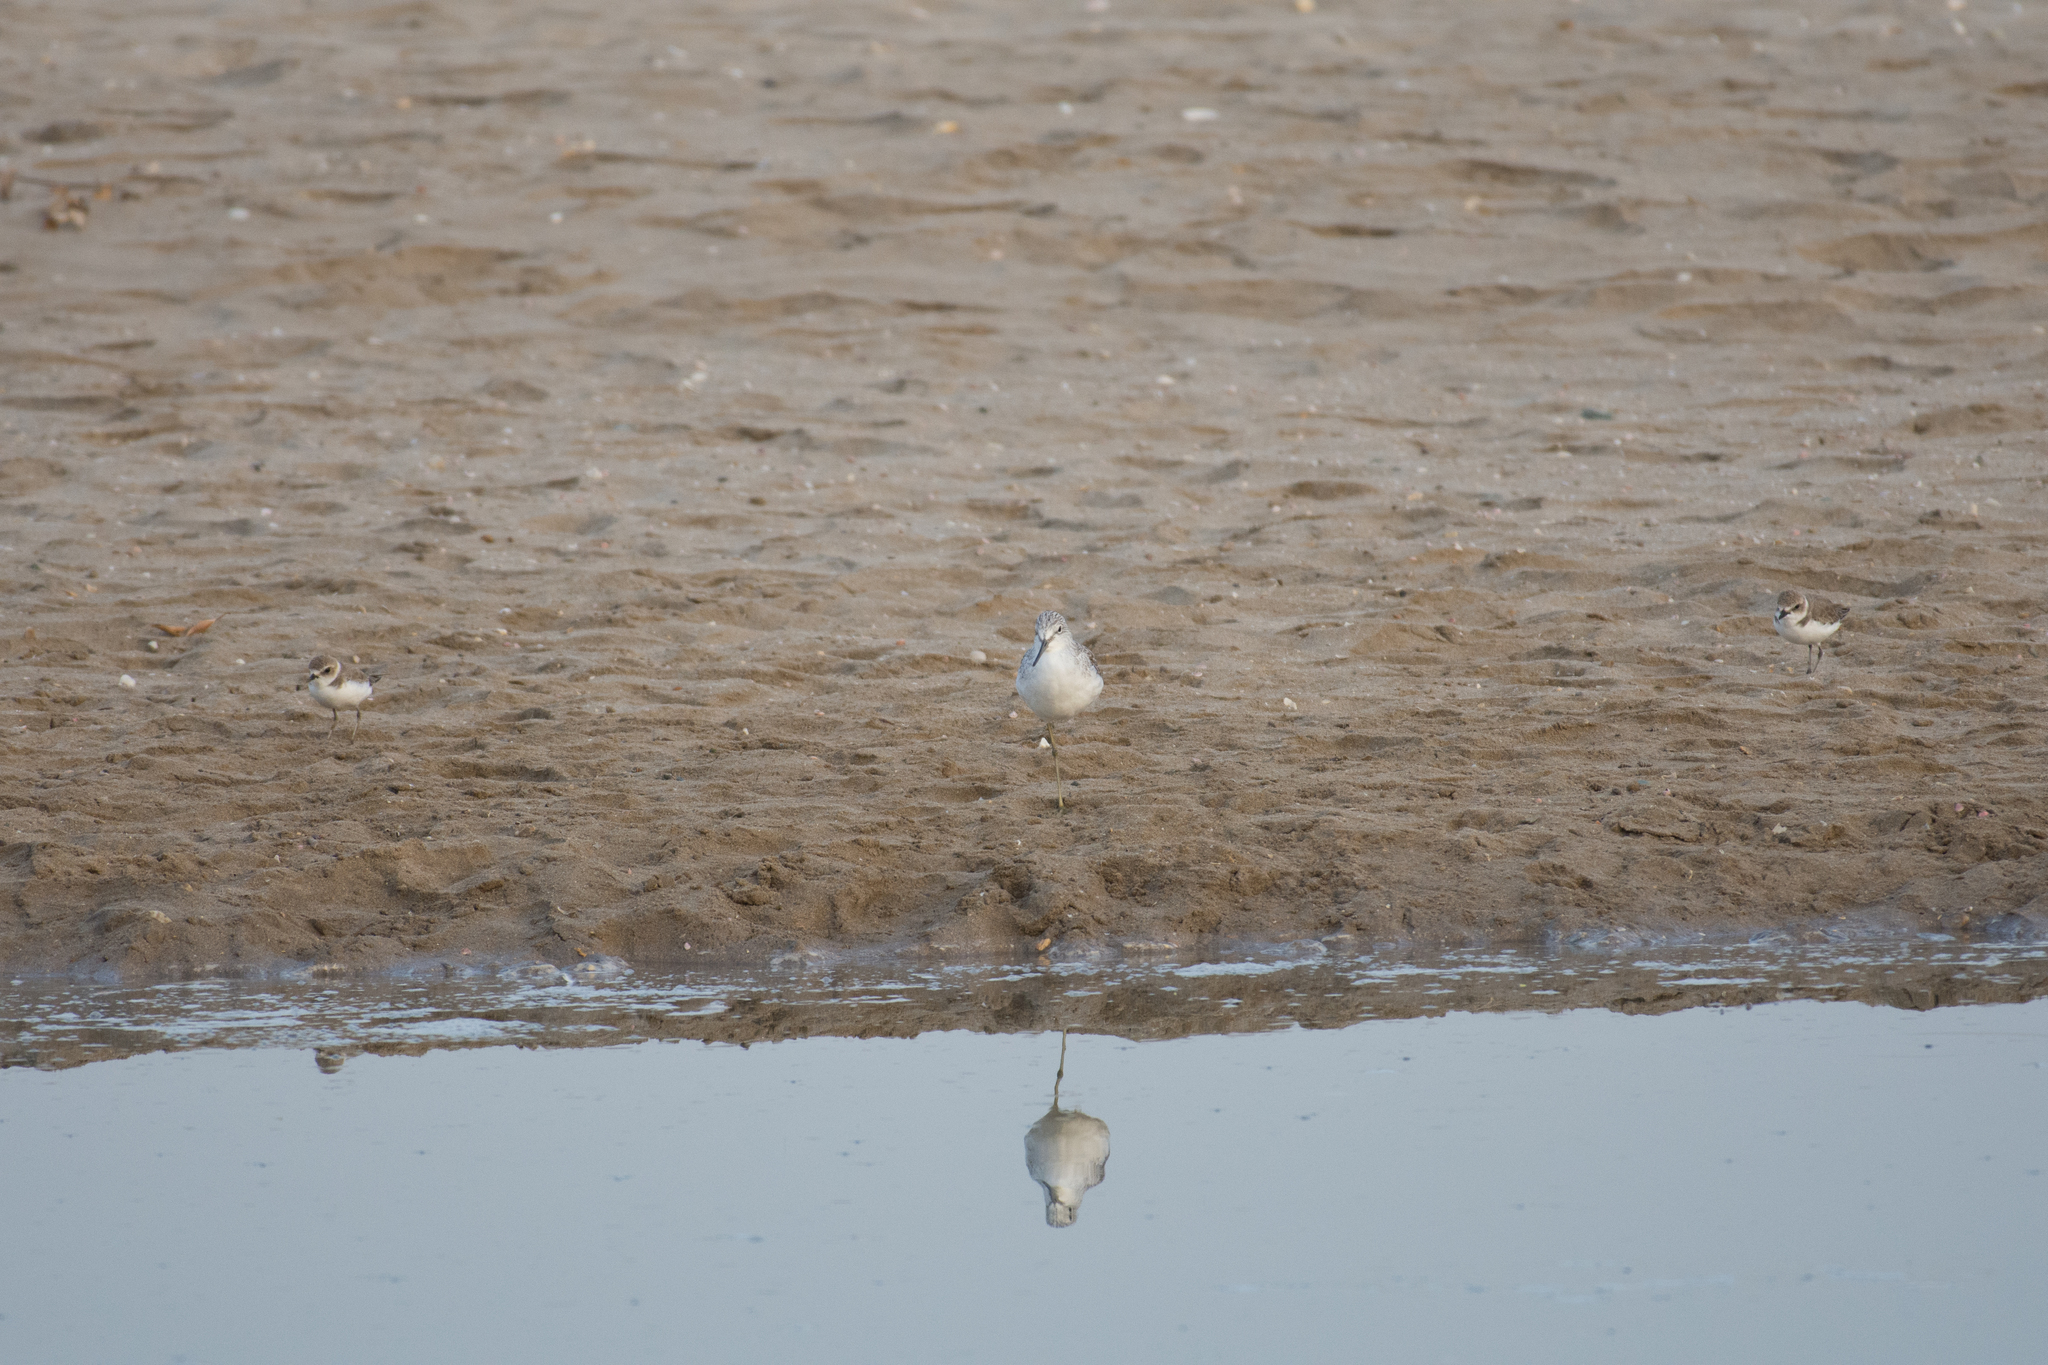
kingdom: Animalia
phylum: Chordata
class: Aves
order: Charadriiformes
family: Scolopacidae
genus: Tringa
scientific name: Tringa nebularia
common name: Common greenshank
